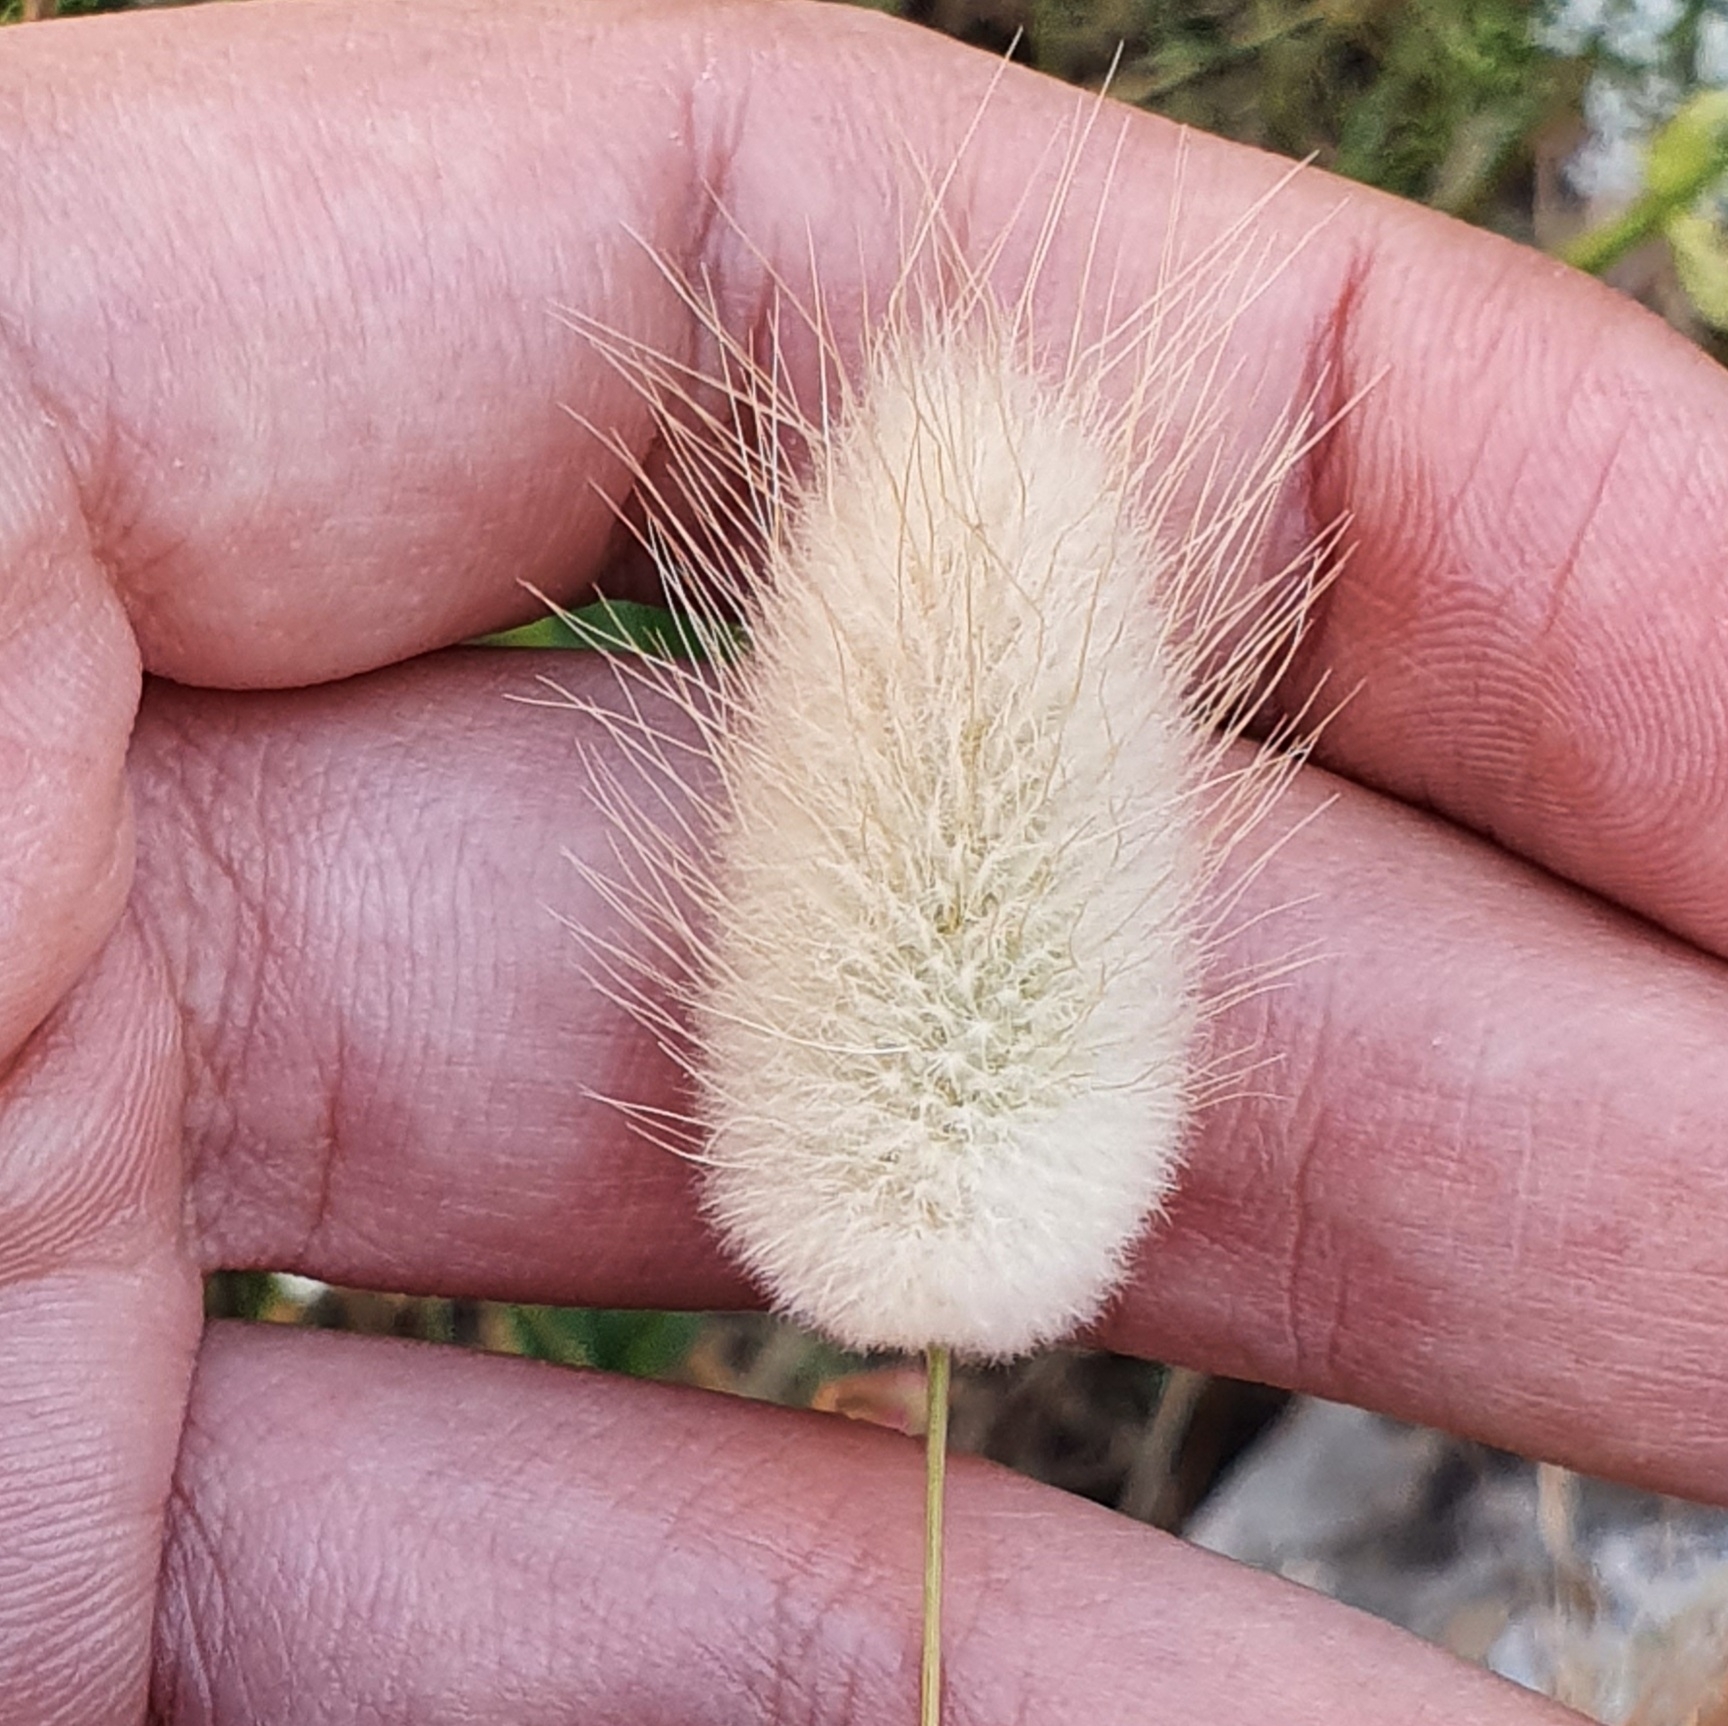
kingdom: Plantae
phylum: Tracheophyta
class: Liliopsida
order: Poales
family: Poaceae
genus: Lagurus
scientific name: Lagurus ovatus
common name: Hare's-tail
